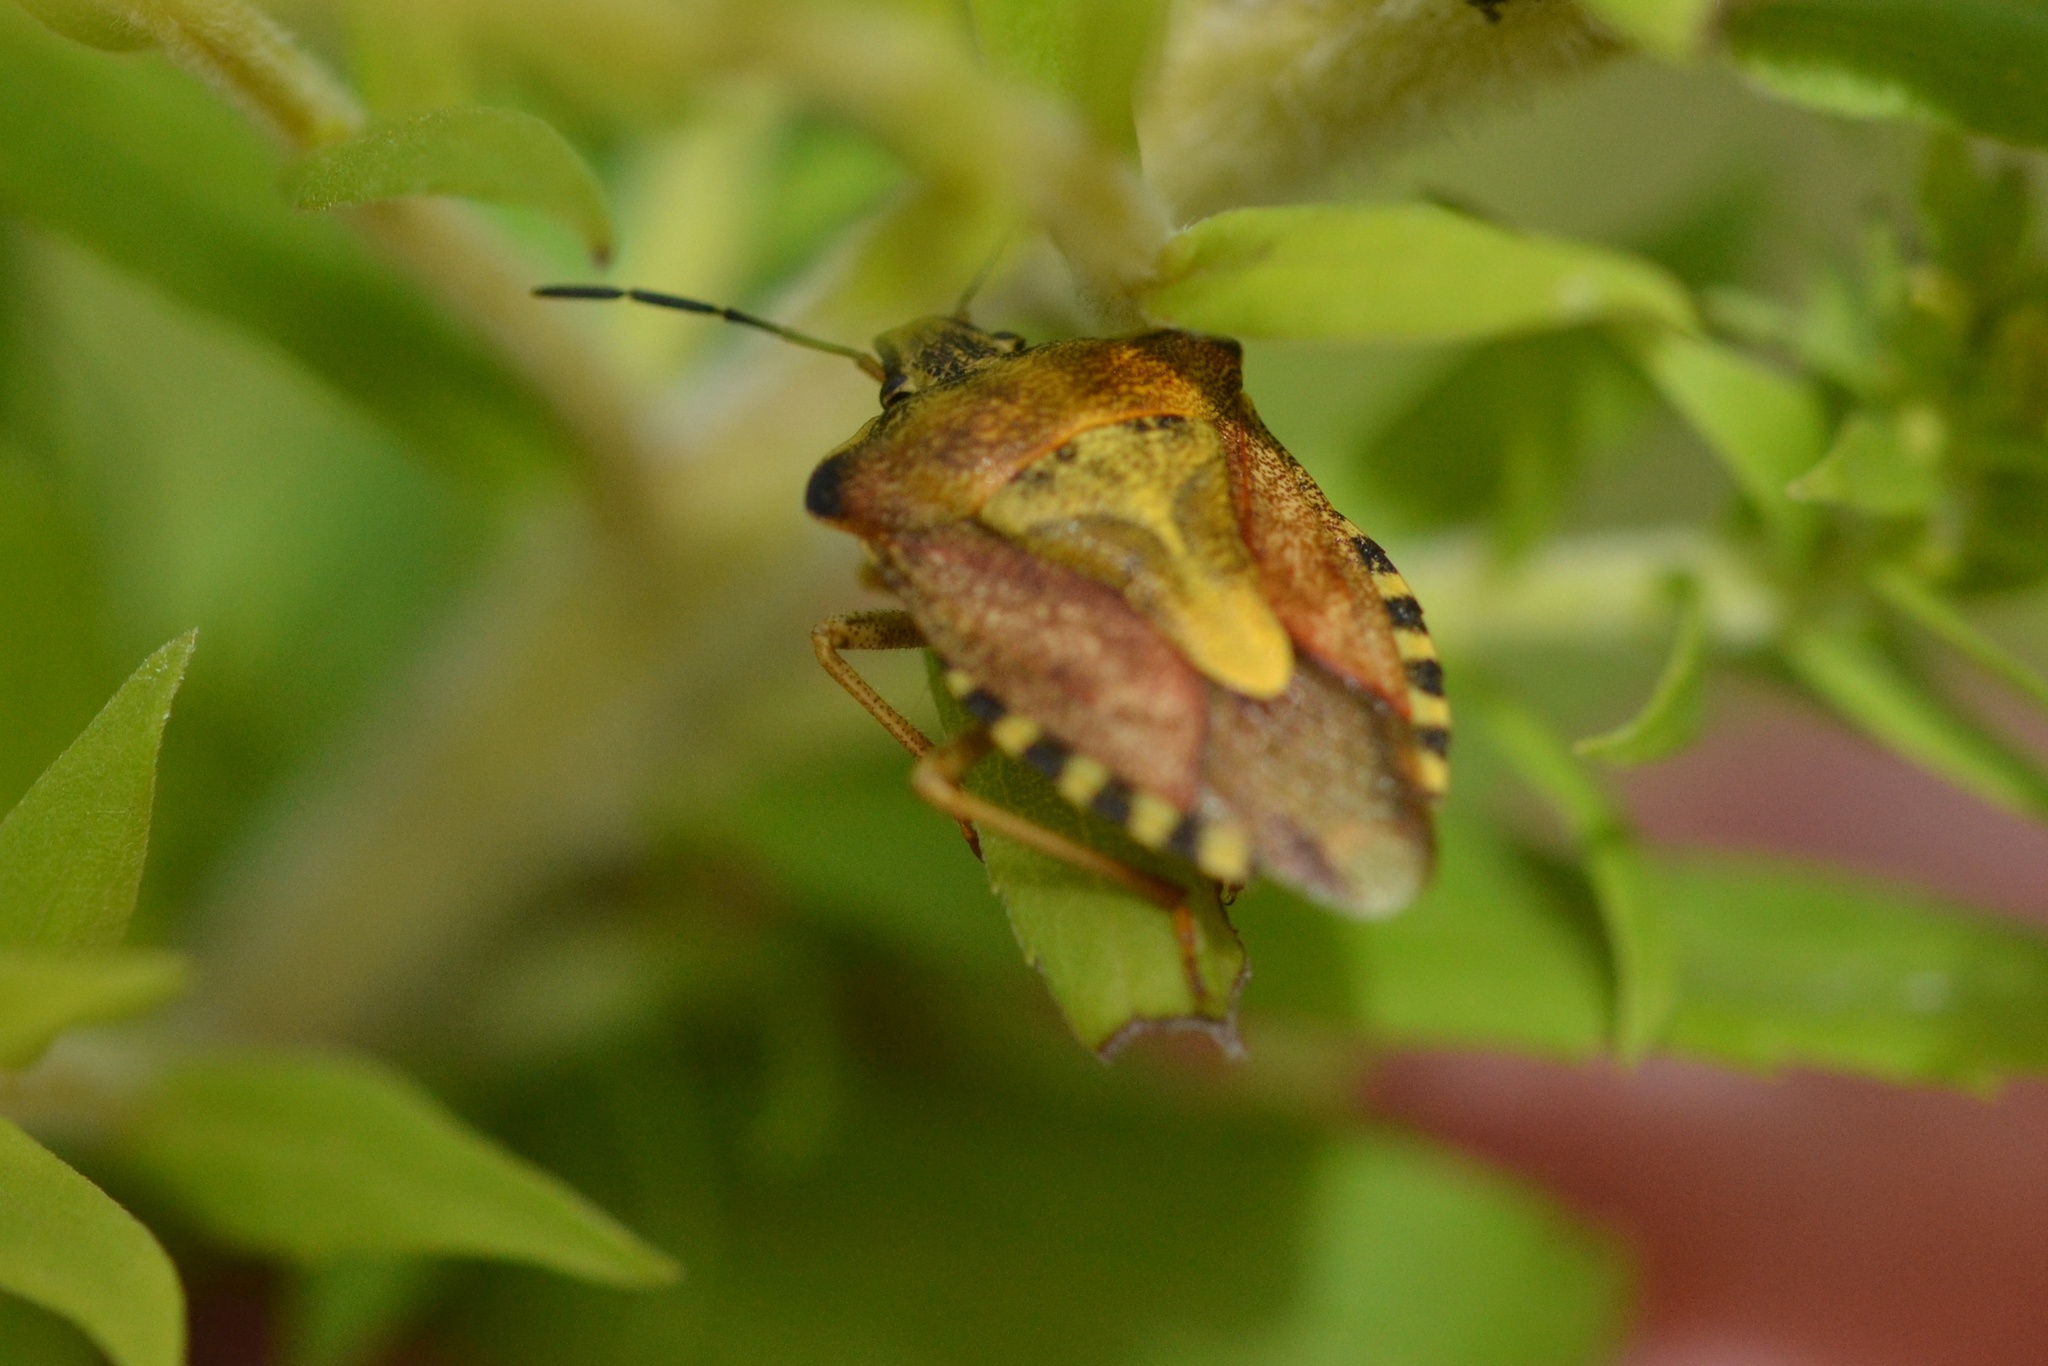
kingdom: Animalia
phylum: Arthropoda
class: Insecta
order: Hemiptera
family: Pentatomidae
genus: Carpocoris
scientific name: Carpocoris purpureipennis
